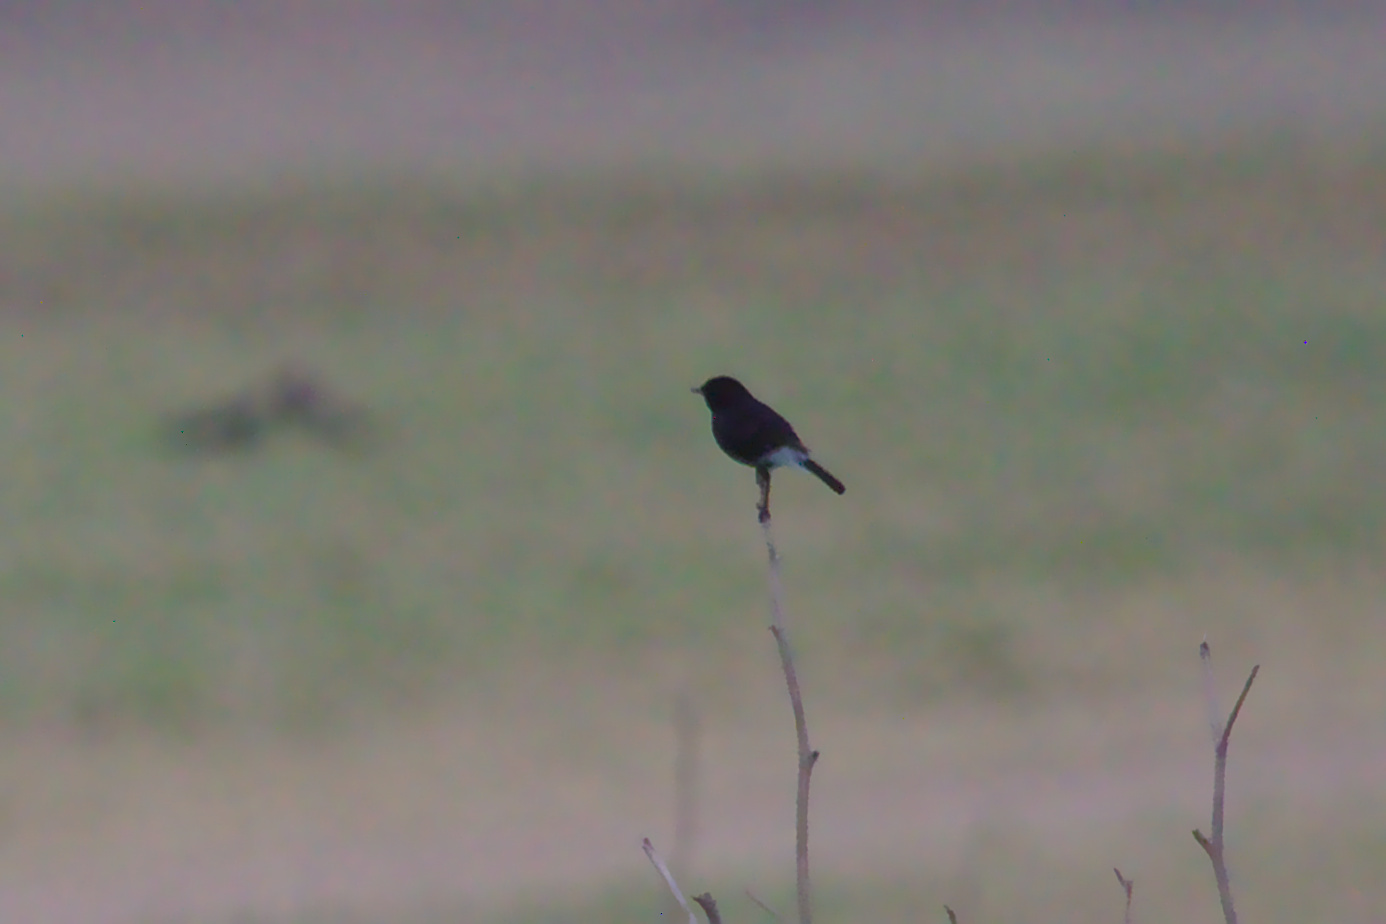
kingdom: Animalia
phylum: Chordata
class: Aves
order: Passeriformes
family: Muscicapidae
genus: Saxicola
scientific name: Saxicola caprata
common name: Pied bush chat
